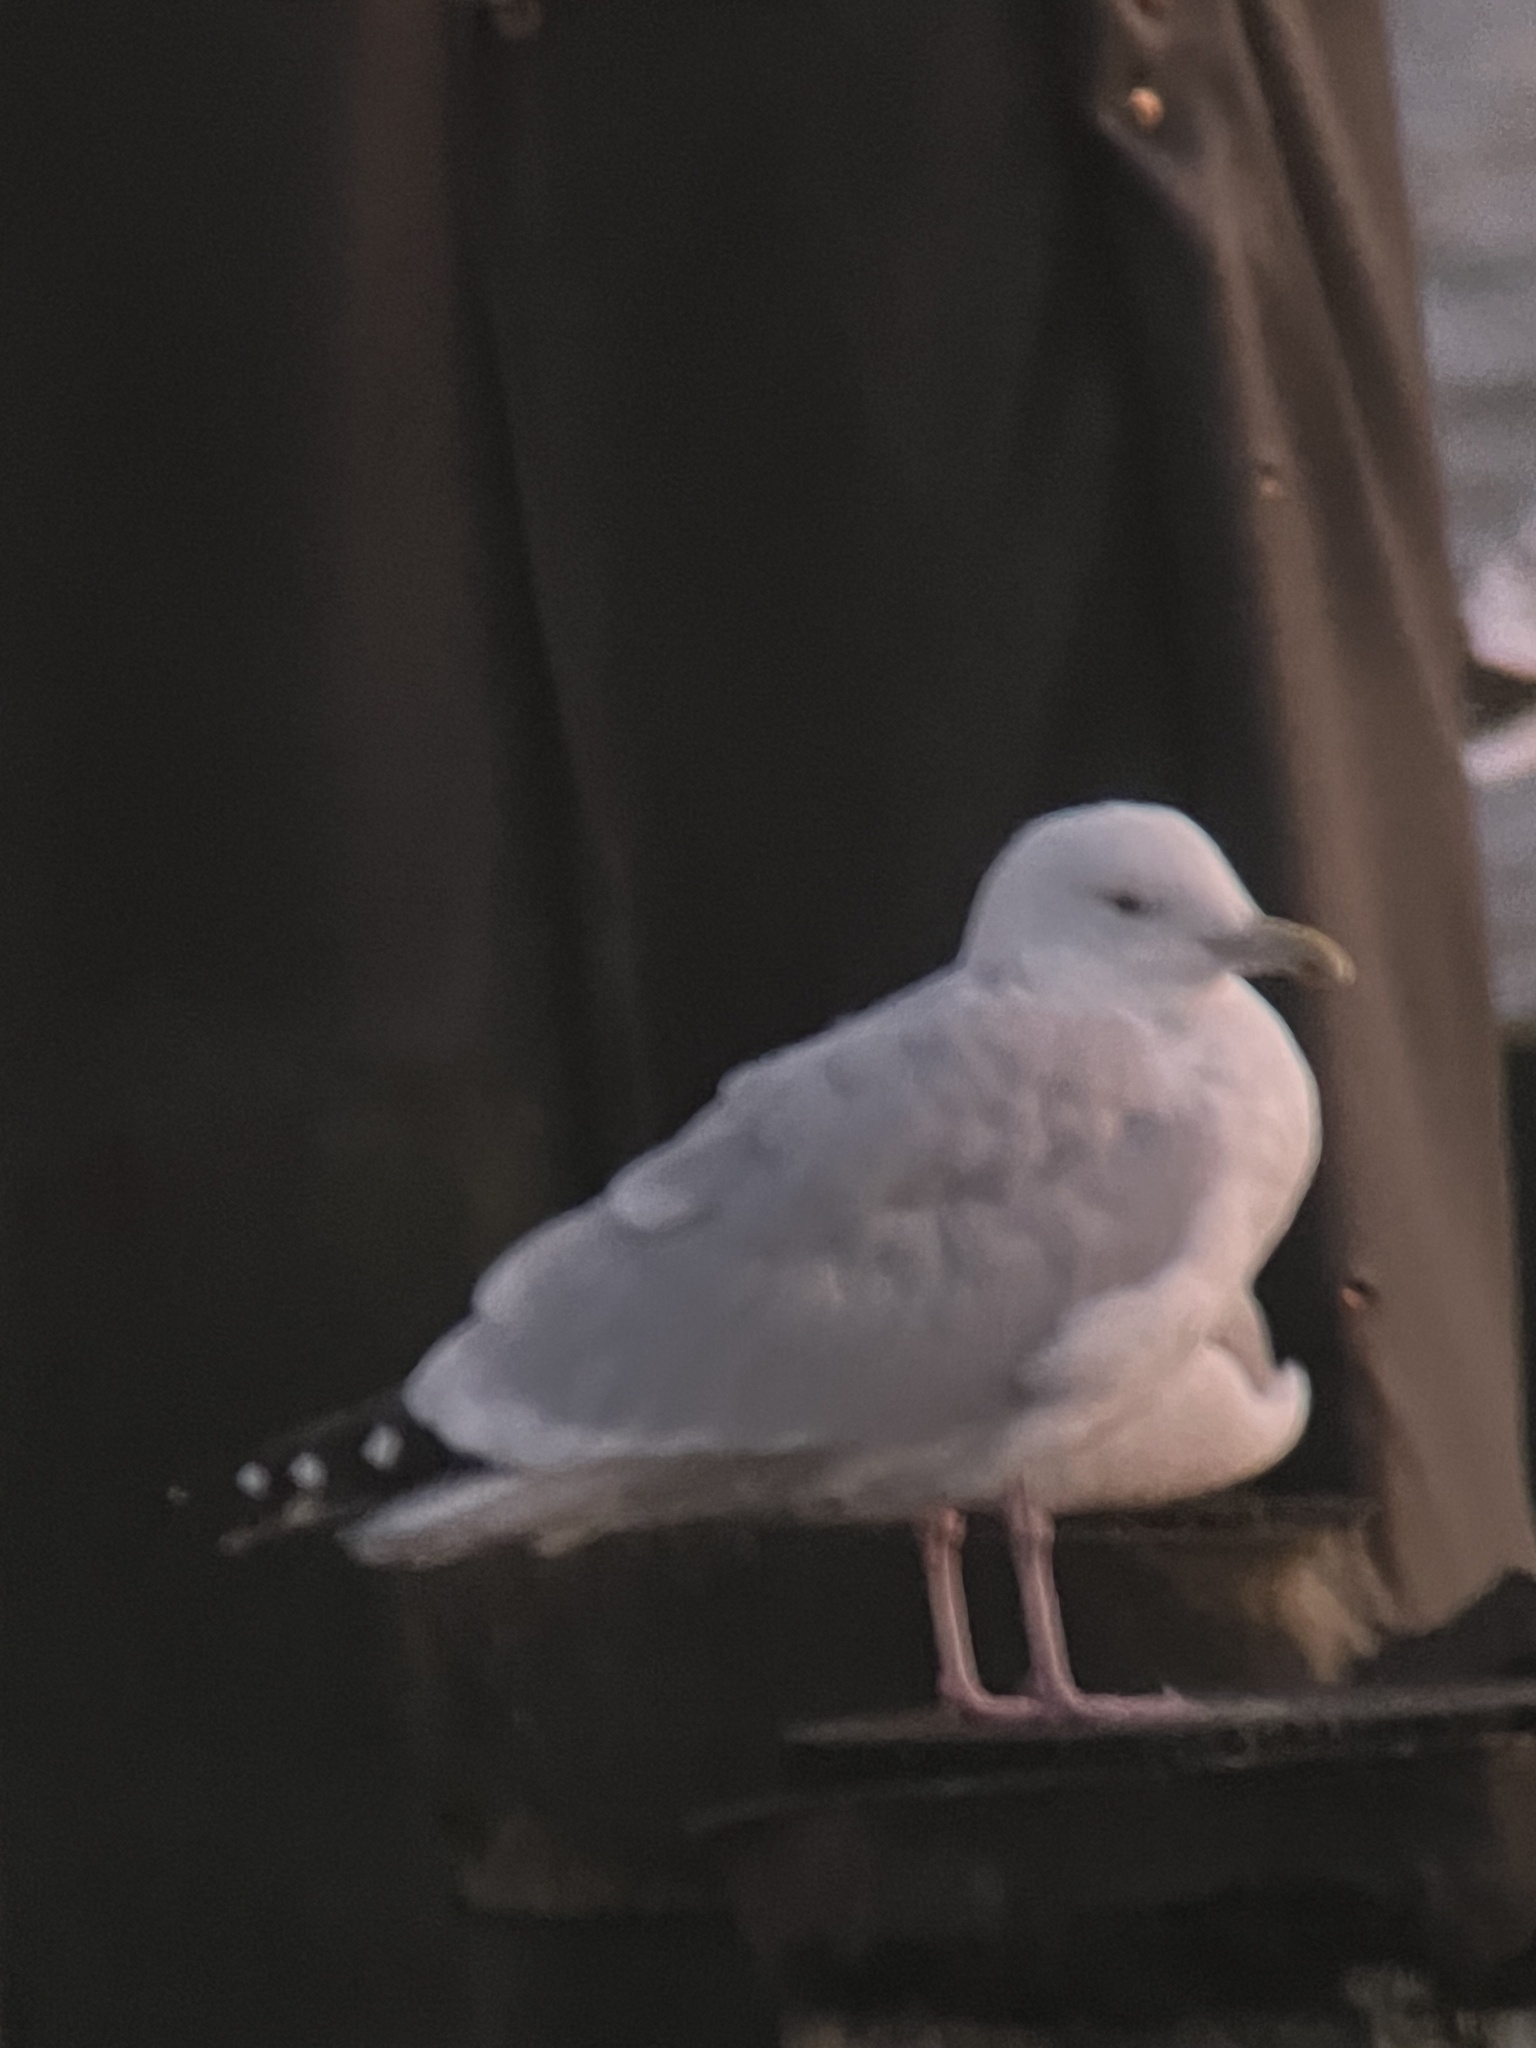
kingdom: Animalia
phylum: Chordata
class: Aves
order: Charadriiformes
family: Laridae
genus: Larus
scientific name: Larus argentatus
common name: Herring gull
